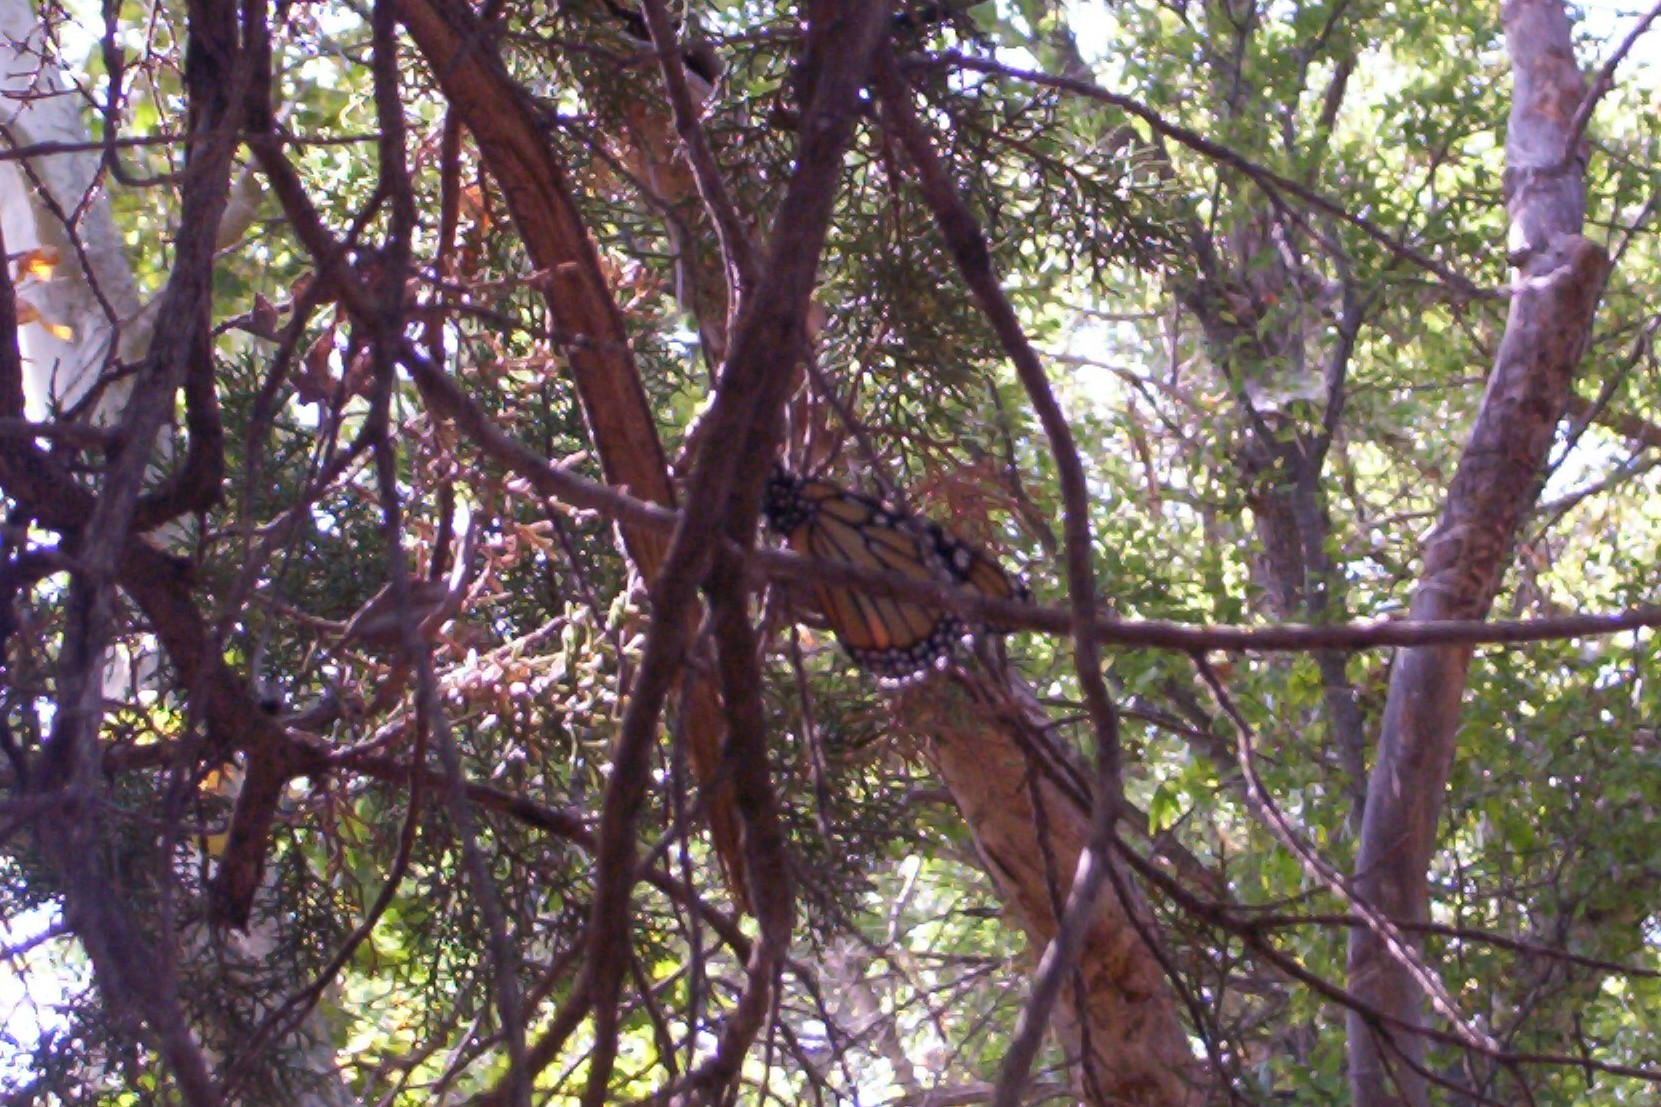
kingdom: Animalia
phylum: Arthropoda
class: Insecta
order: Lepidoptera
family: Nymphalidae
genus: Danaus
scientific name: Danaus plexippus
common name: Monarch
